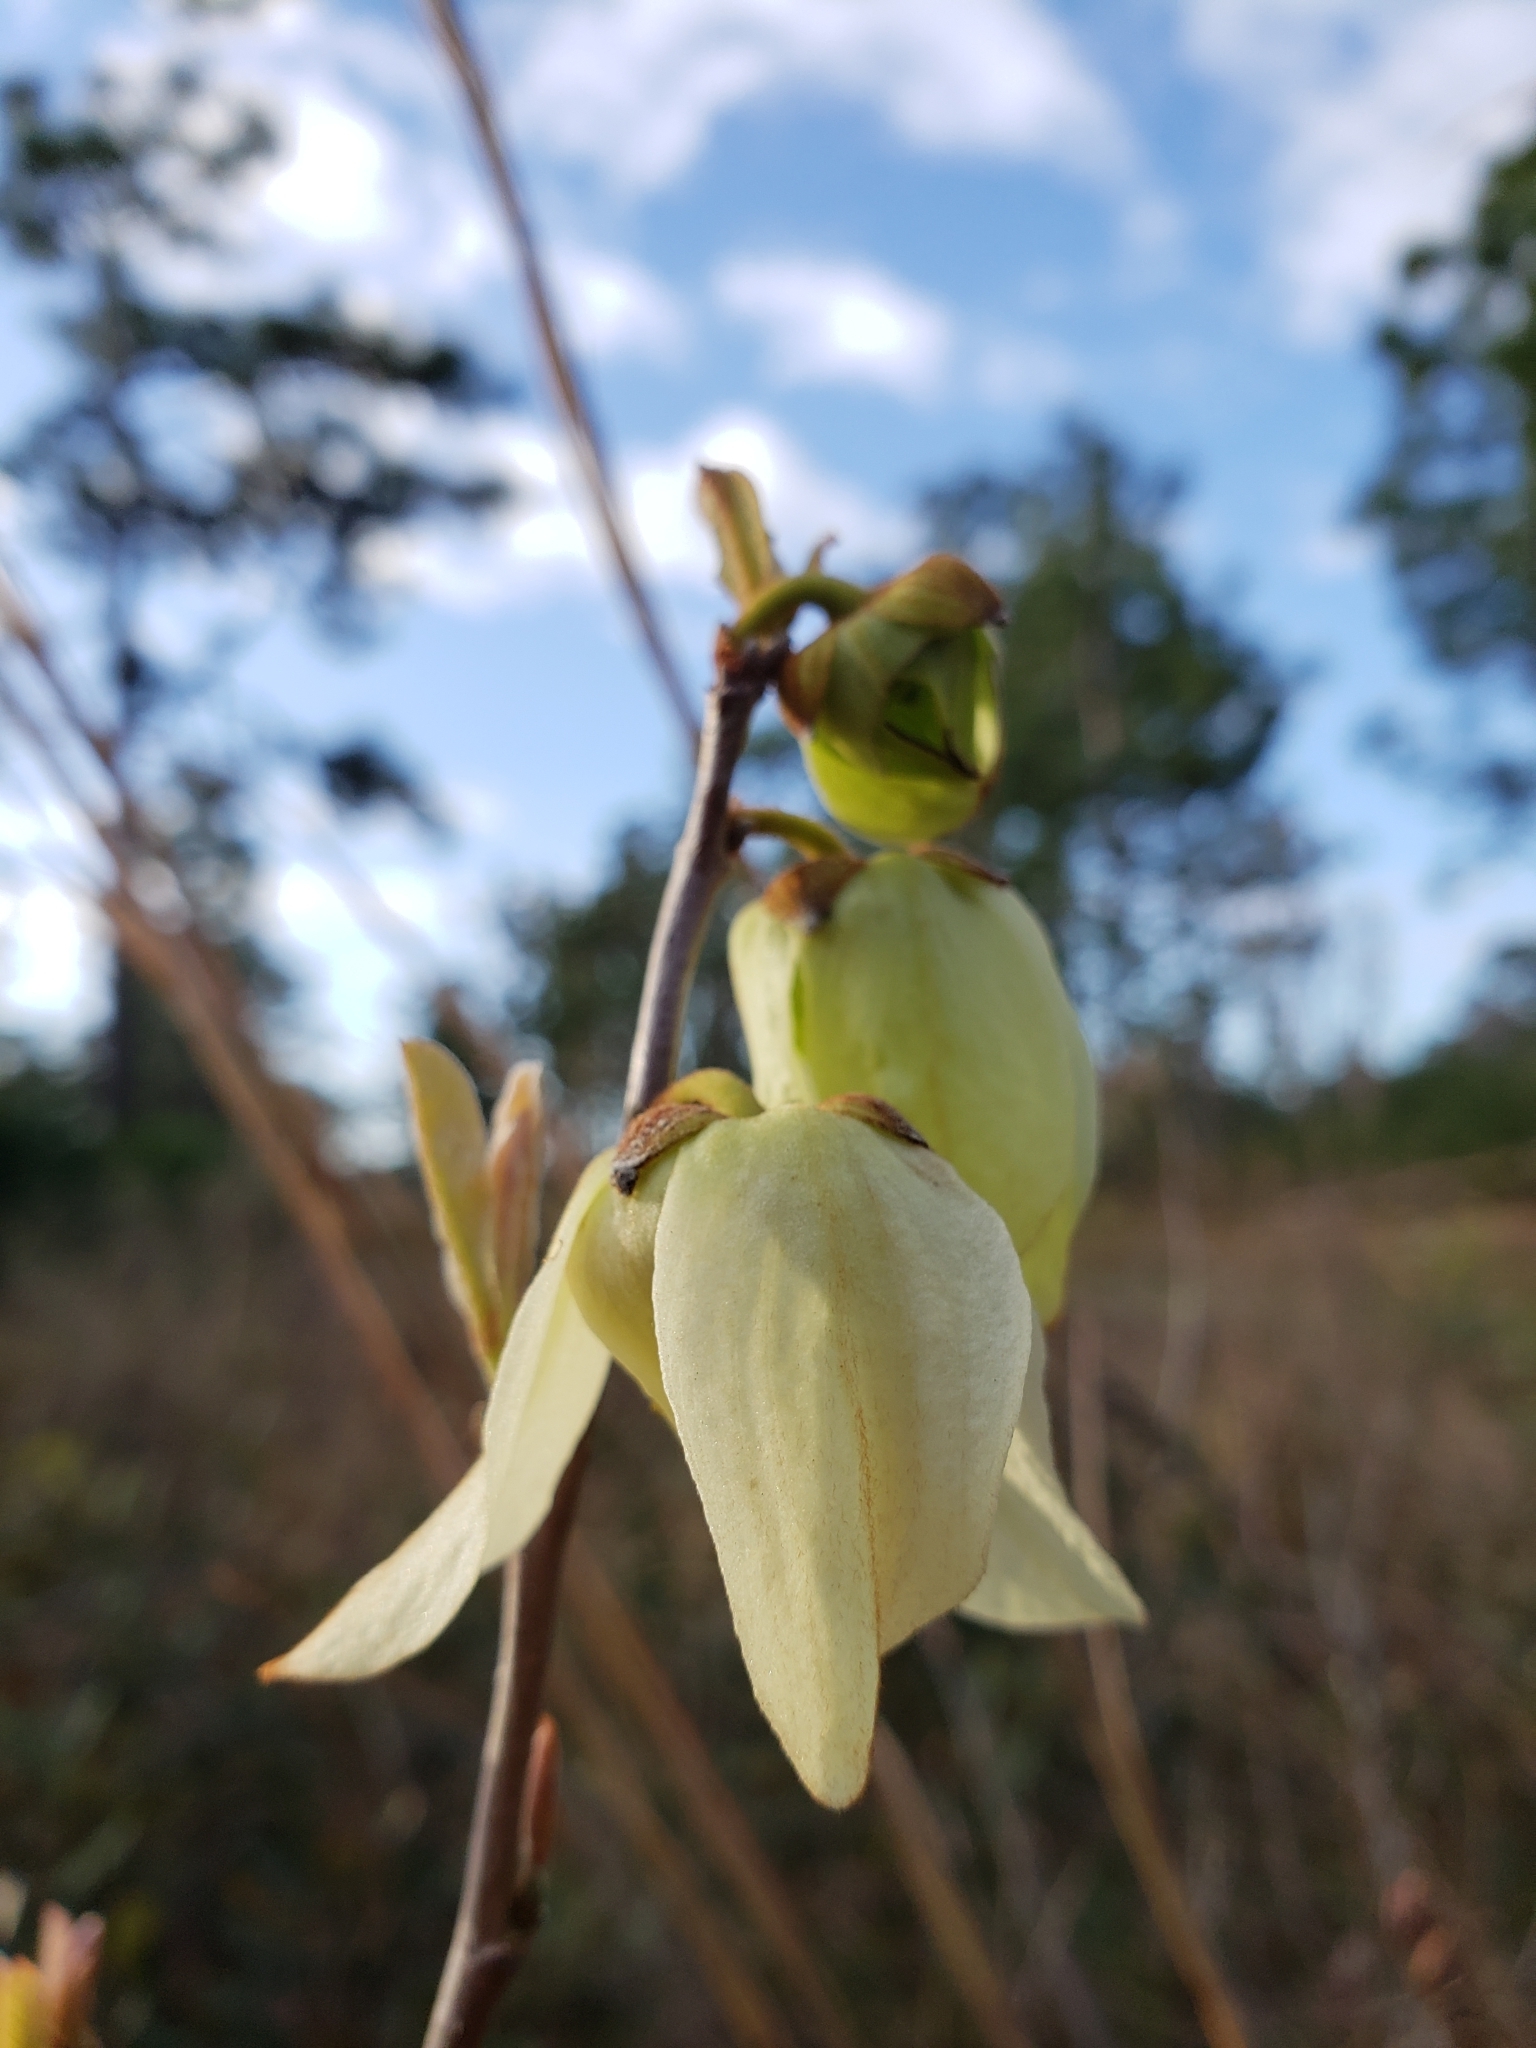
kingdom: Plantae
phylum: Tracheophyta
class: Magnoliopsida
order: Magnoliales
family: Annonaceae
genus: Asimina
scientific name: Asimina reticulata
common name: Flag pawpaw
